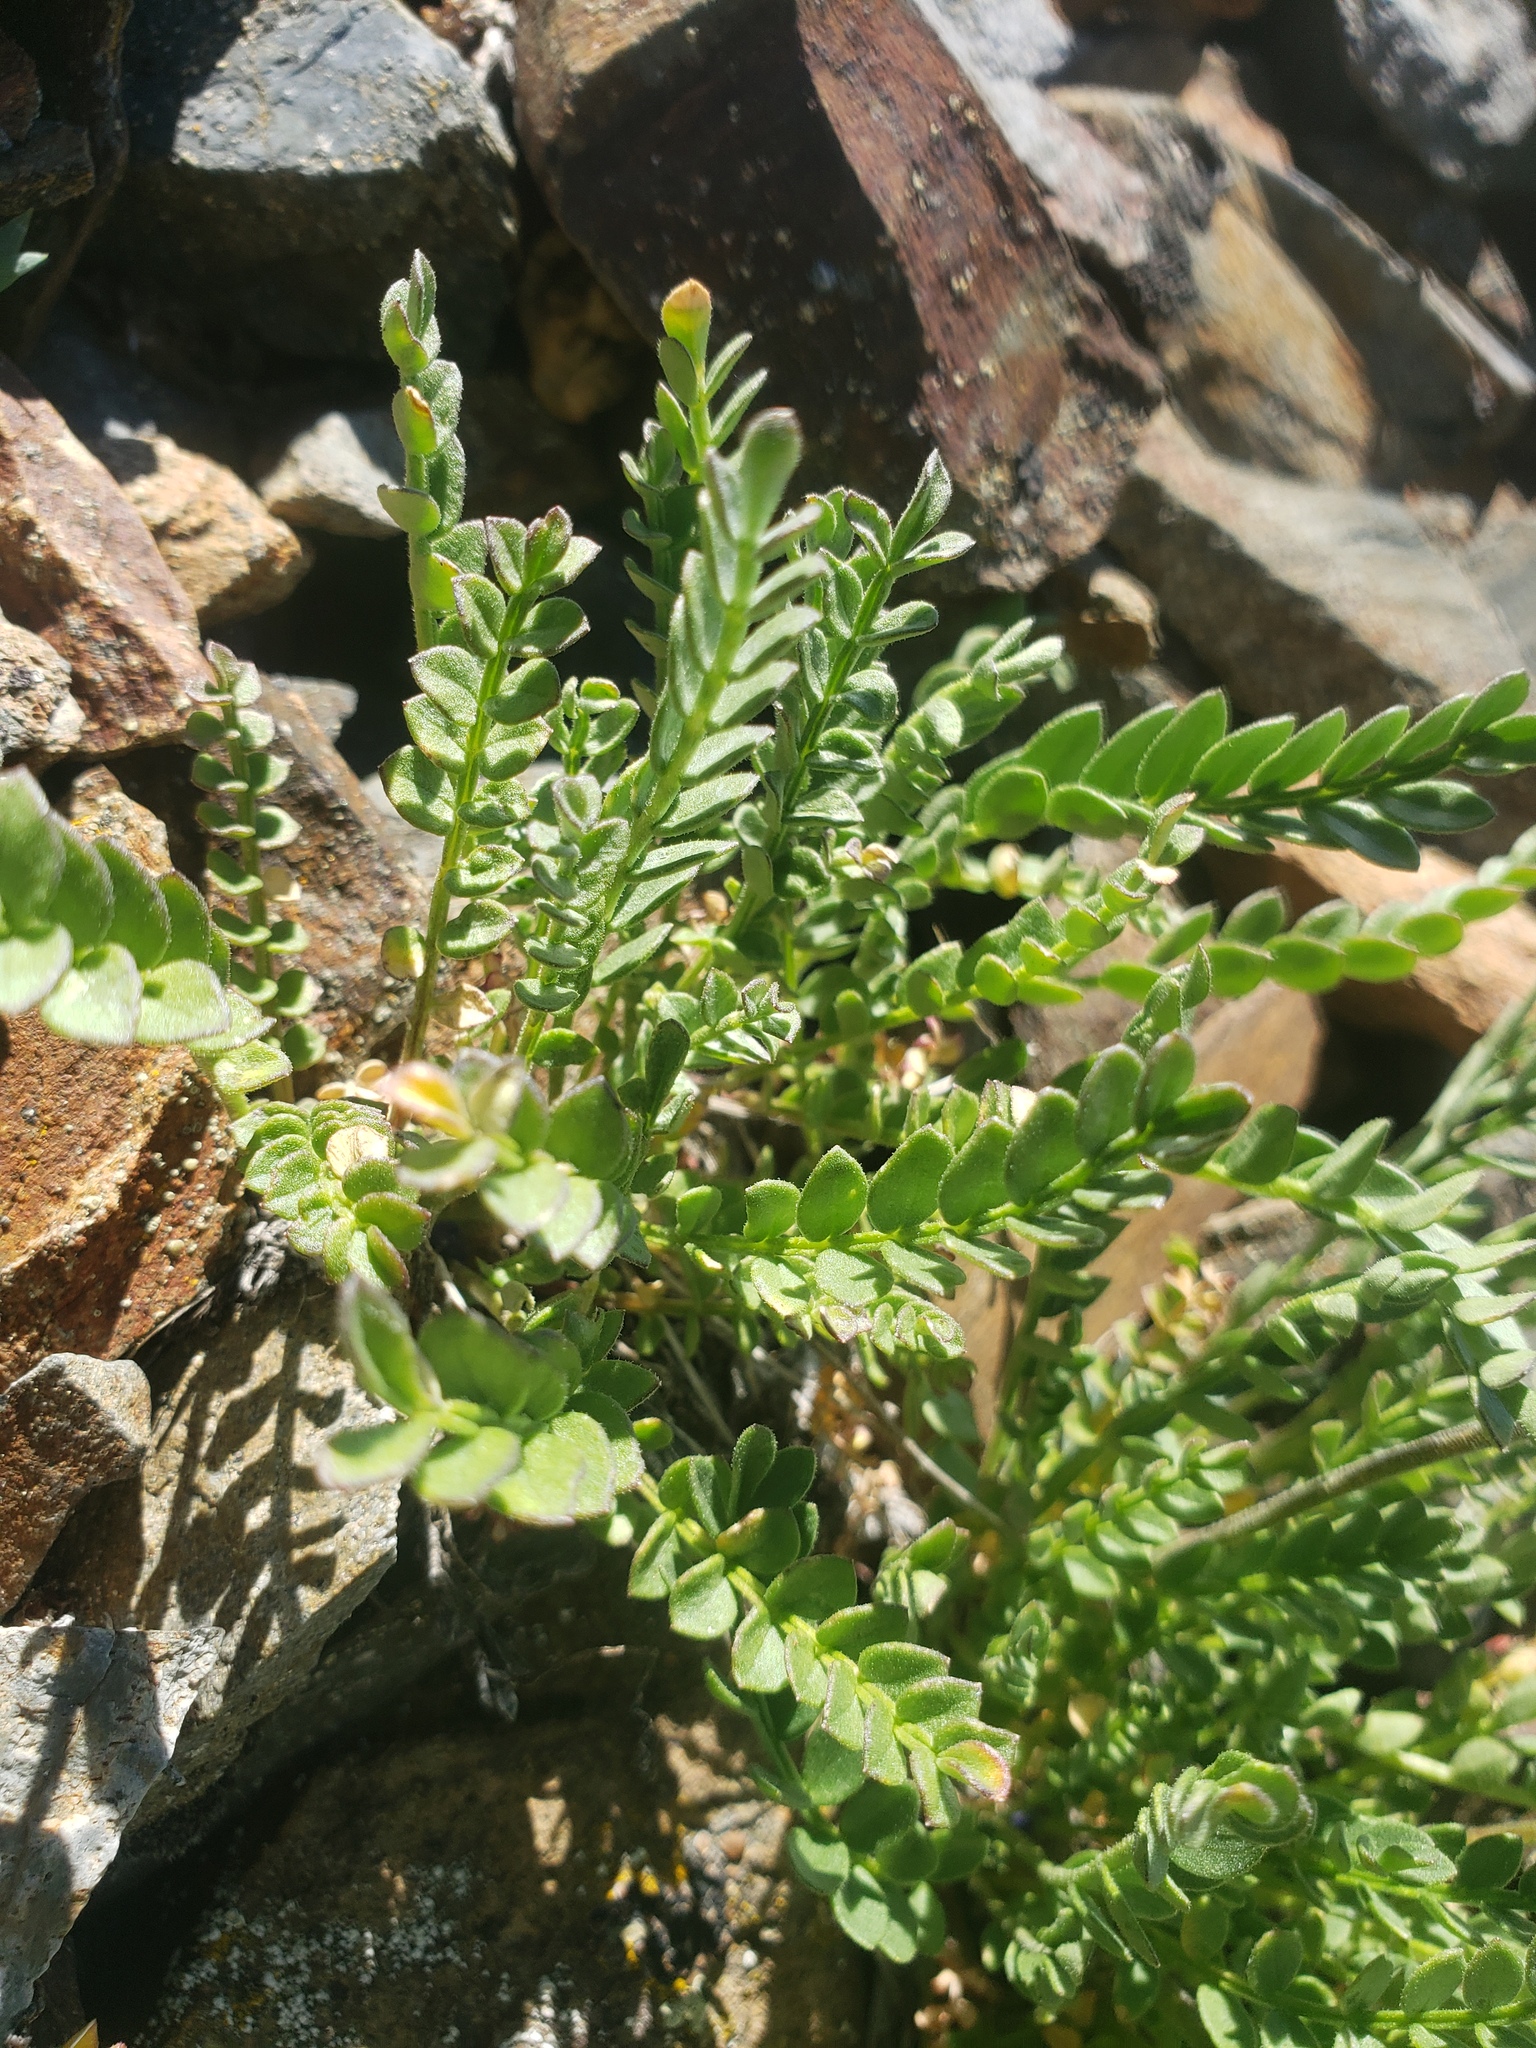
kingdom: Plantae
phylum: Tracheophyta
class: Magnoliopsida
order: Ericales
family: Polemoniaceae
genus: Polemonium
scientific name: Polemonium pulcherrimum
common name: Short jacob's-ladder
